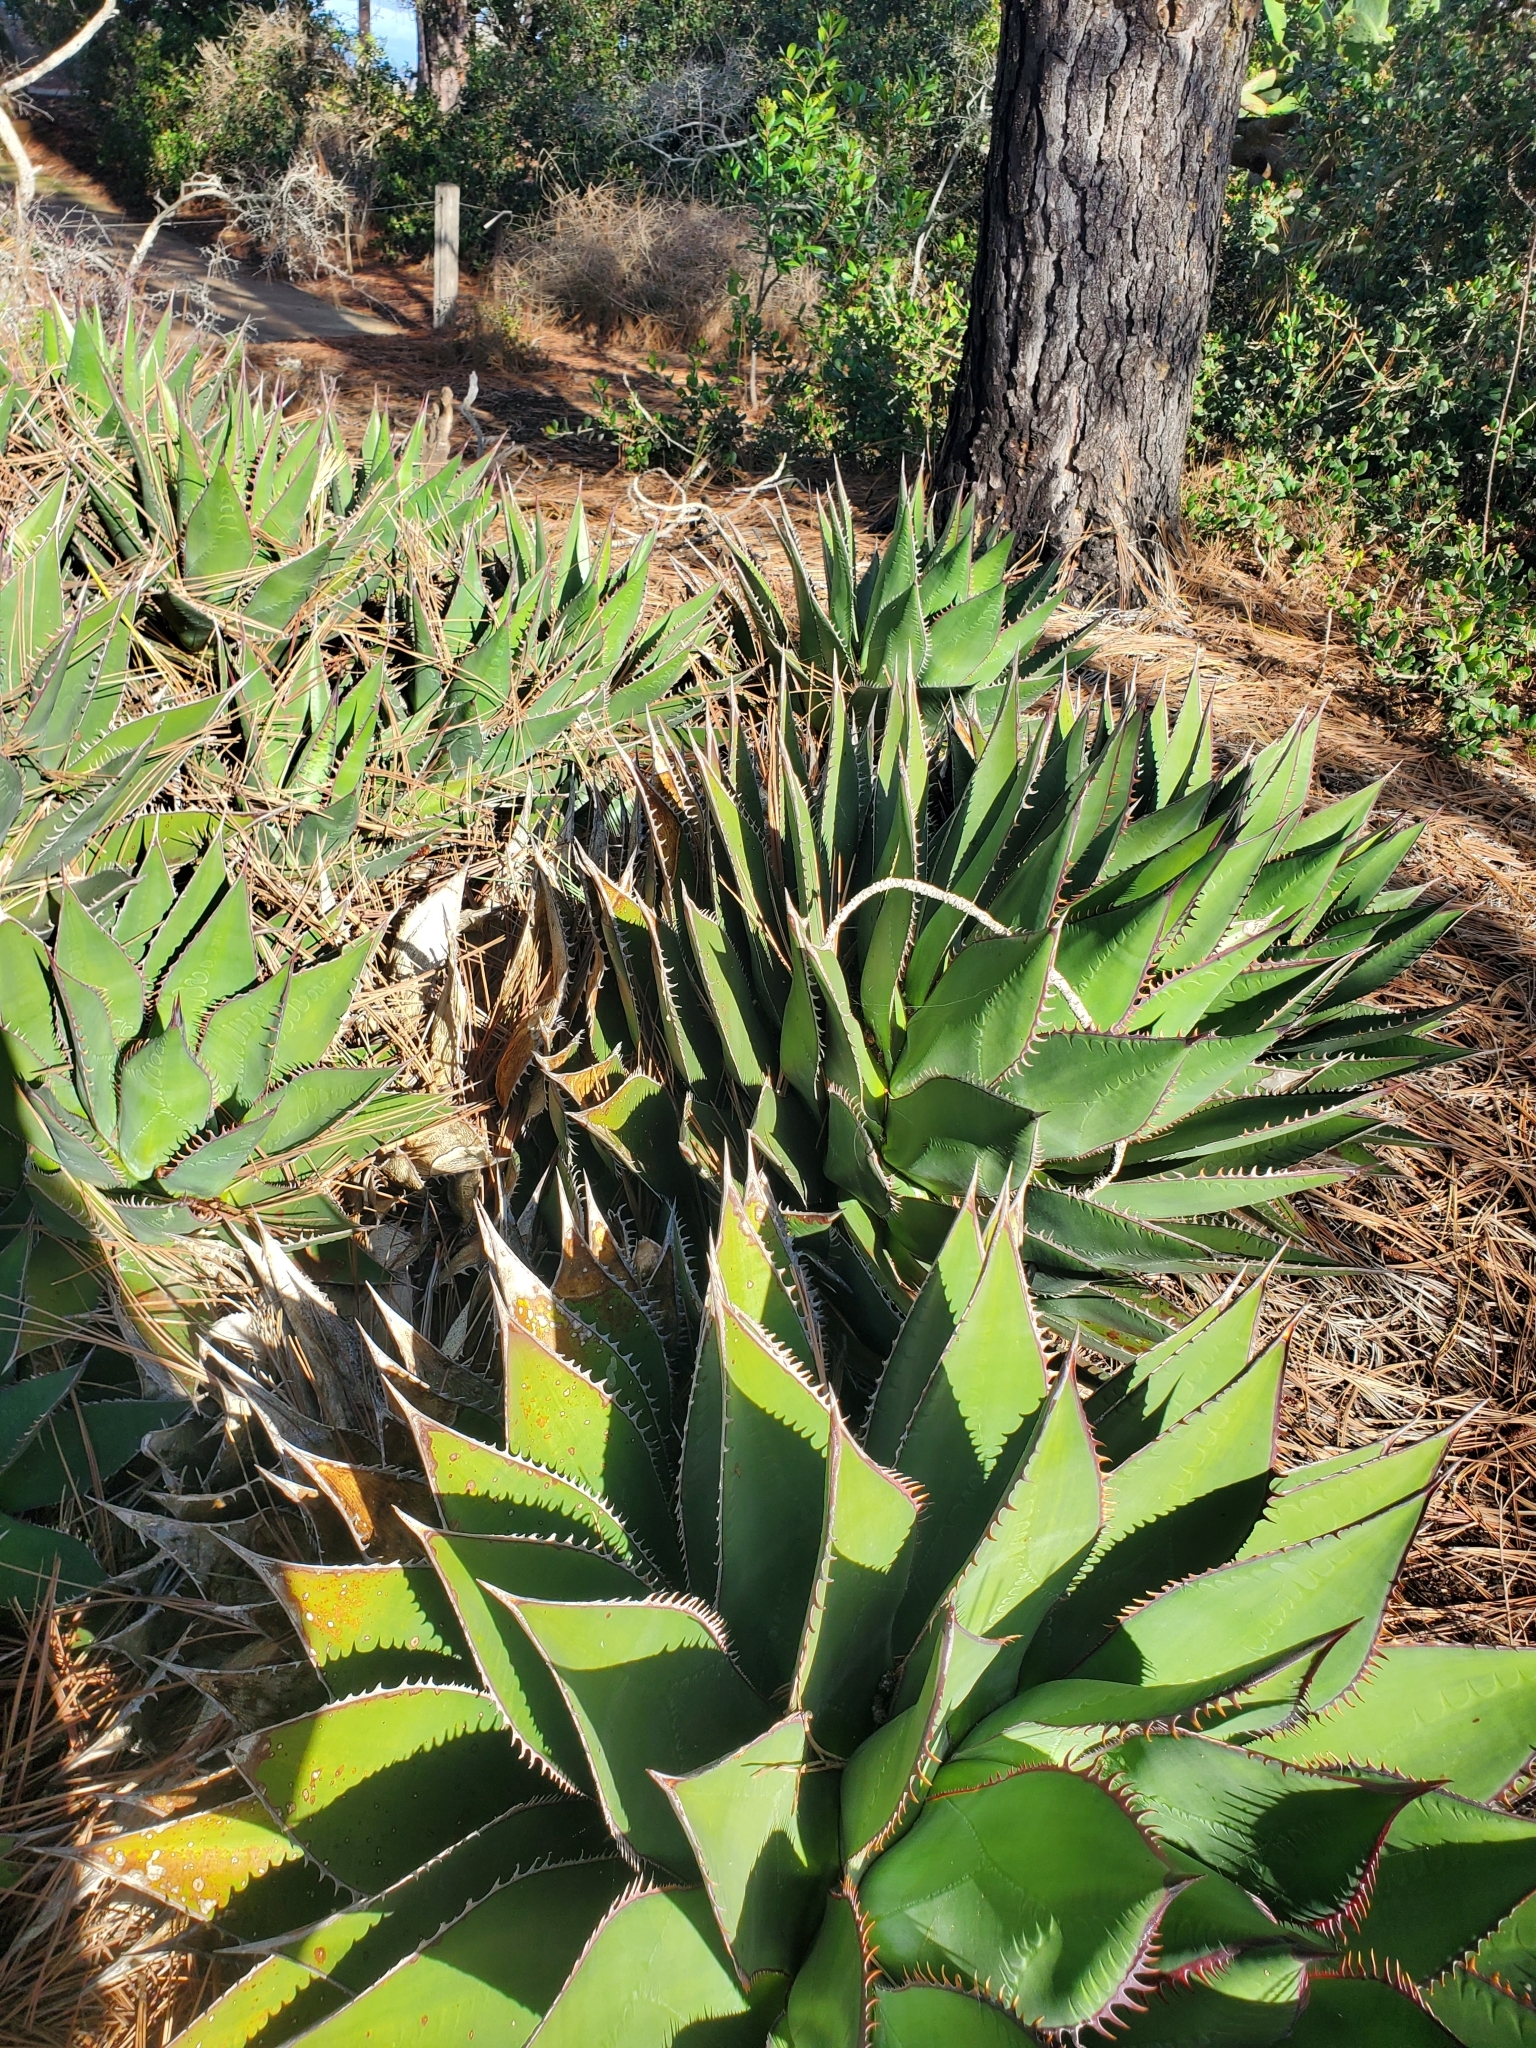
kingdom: Plantae
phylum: Tracheophyta
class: Liliopsida
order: Asparagales
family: Asparagaceae
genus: Agave
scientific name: Agave shawii
